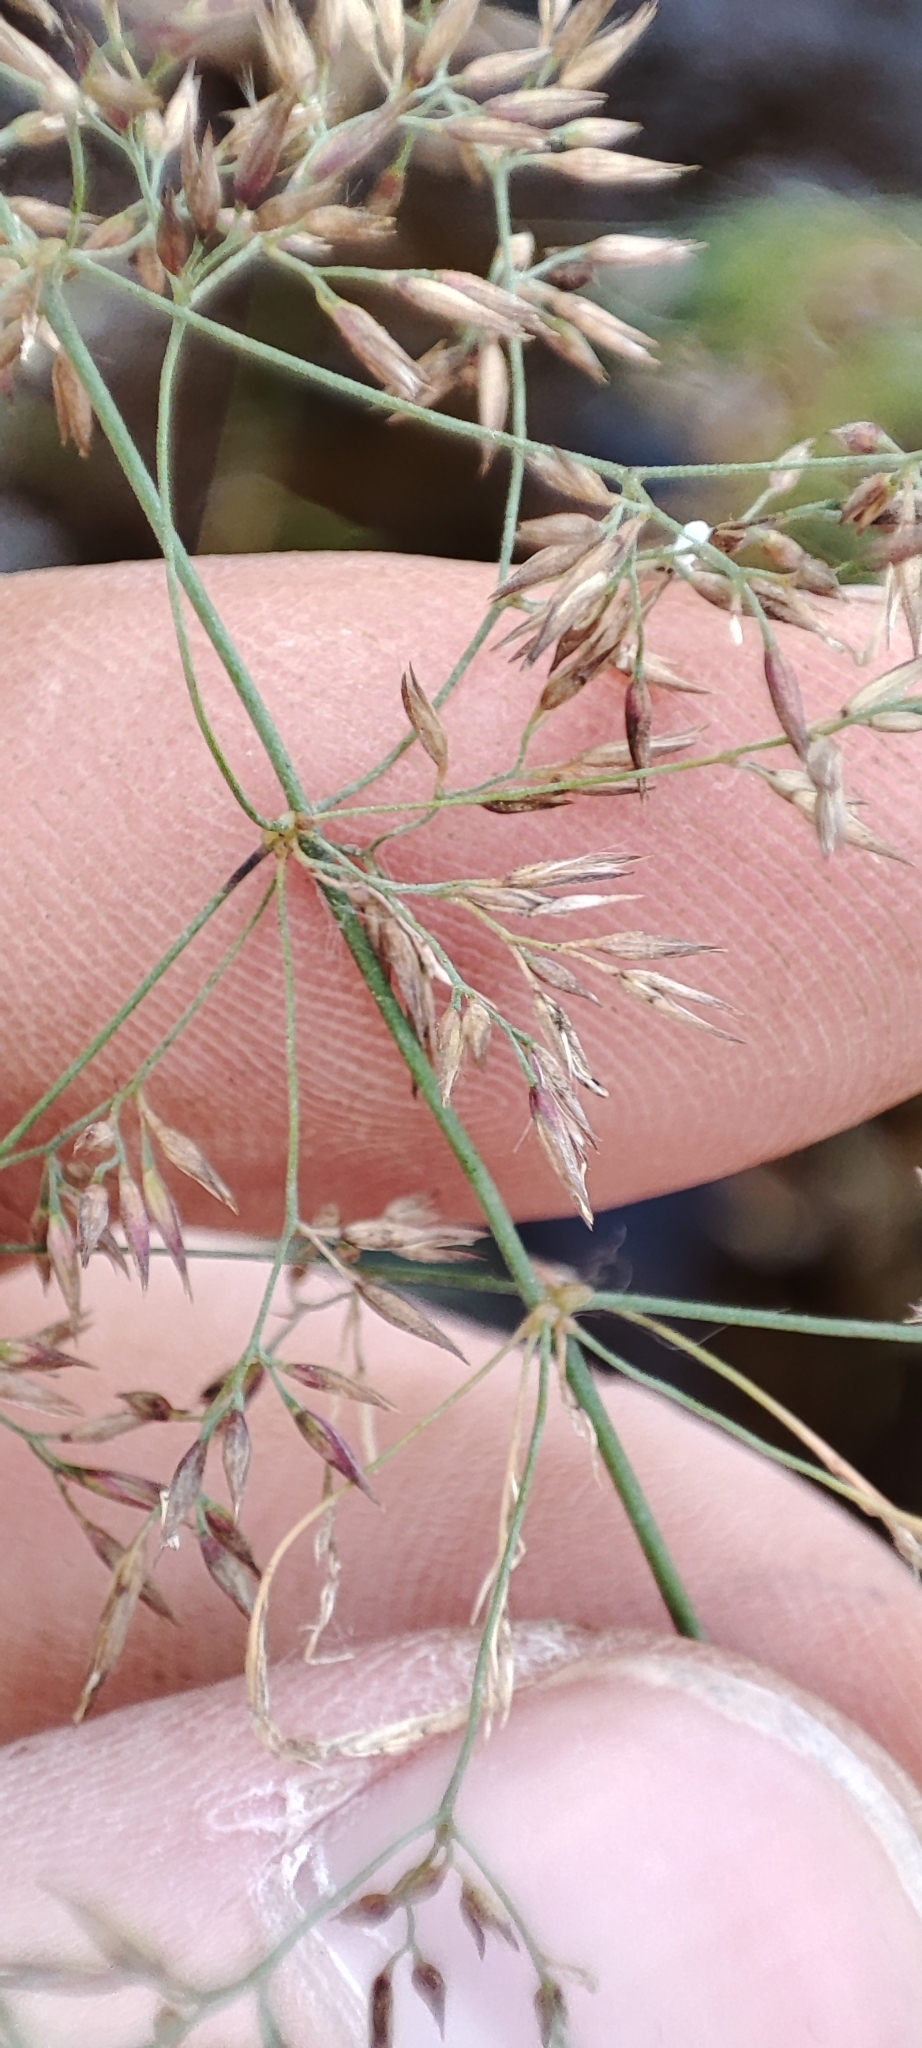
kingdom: Plantae
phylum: Tracheophyta
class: Liliopsida
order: Poales
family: Poaceae
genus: Calamagrostis
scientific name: Calamagrostis purpurea
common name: Scandinavian small-reed
